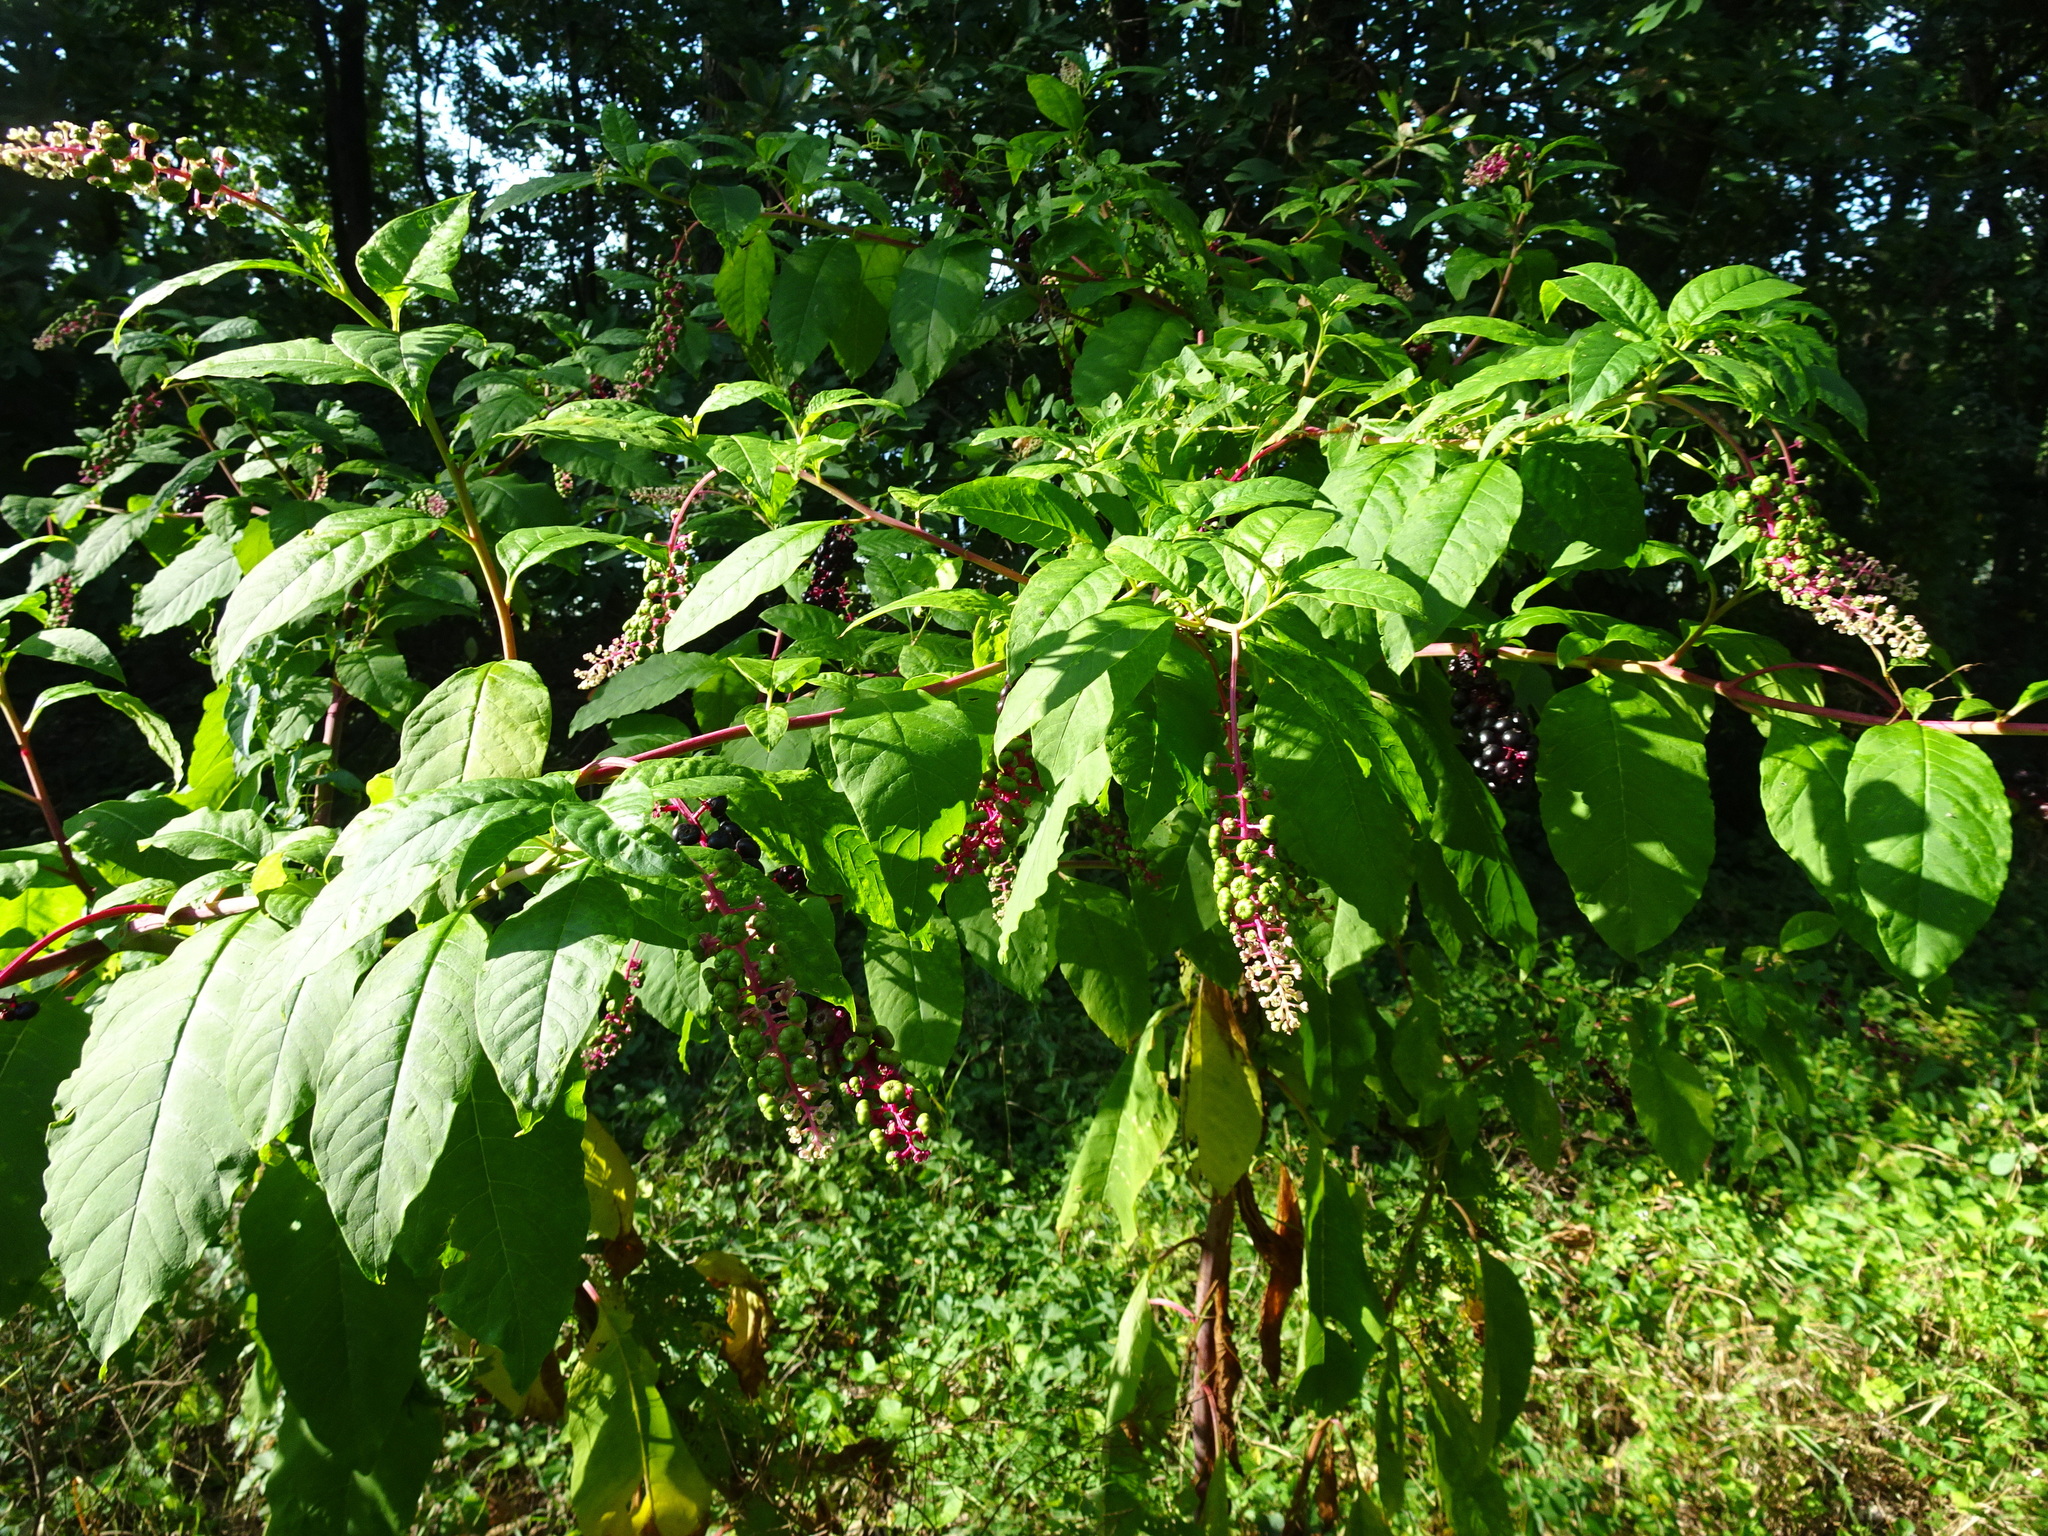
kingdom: Plantae
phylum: Tracheophyta
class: Magnoliopsida
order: Caryophyllales
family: Phytolaccaceae
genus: Phytolacca
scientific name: Phytolacca americana
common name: American pokeweed
